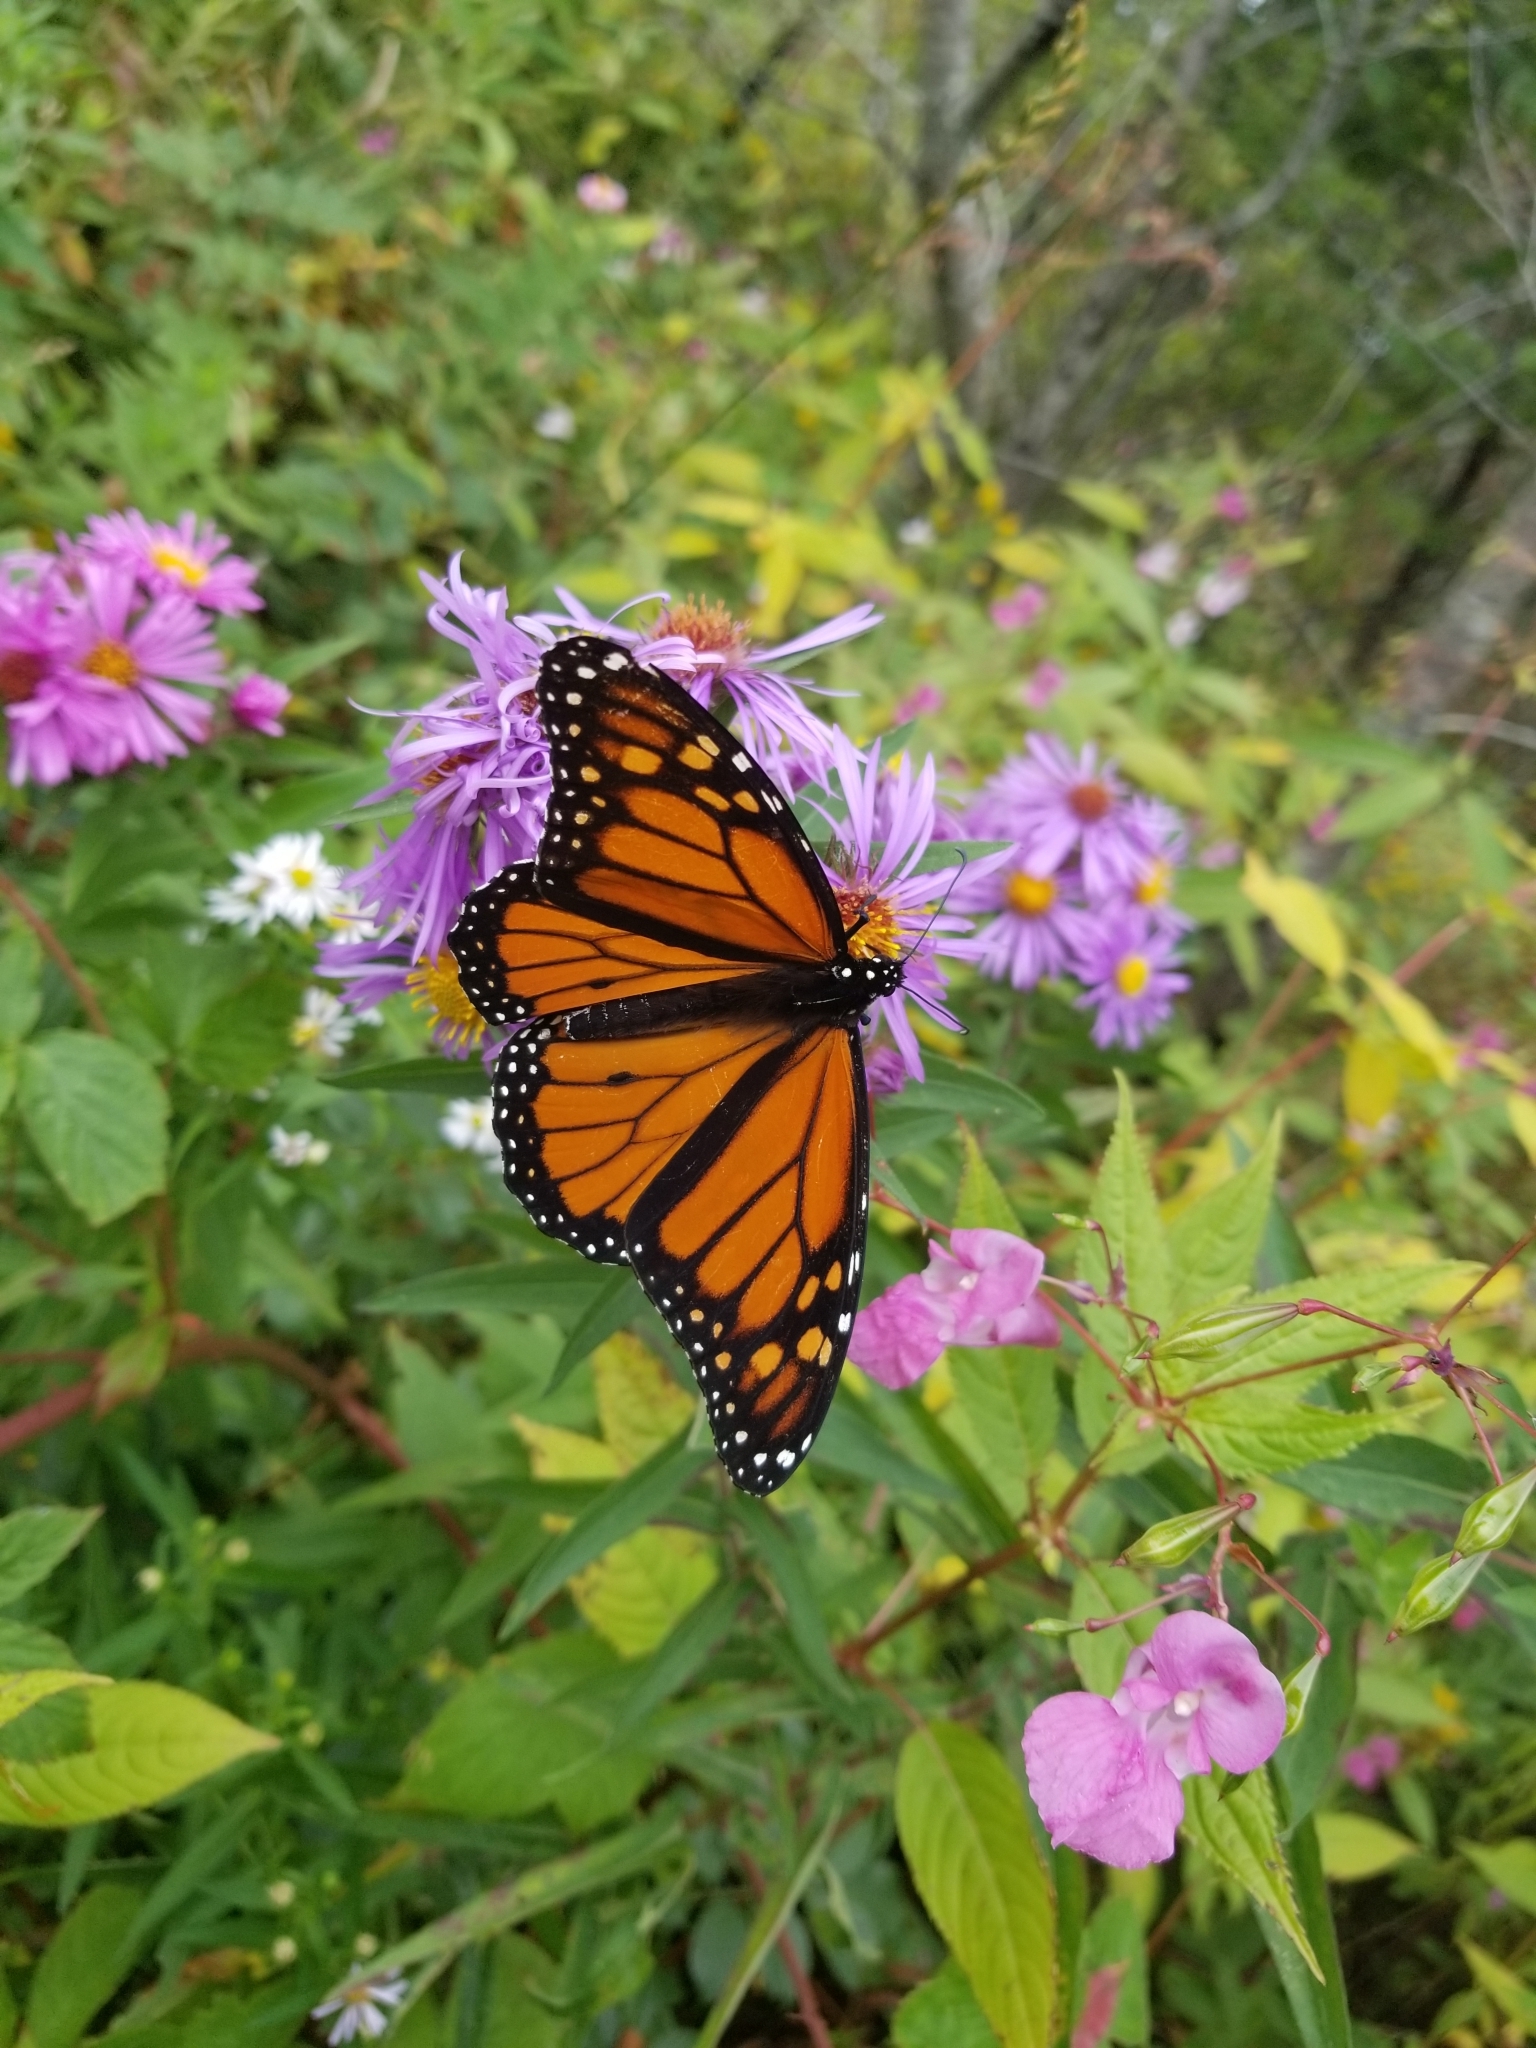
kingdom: Animalia
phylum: Arthropoda
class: Insecta
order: Lepidoptera
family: Nymphalidae
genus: Danaus
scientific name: Danaus plexippus
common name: Monarch
